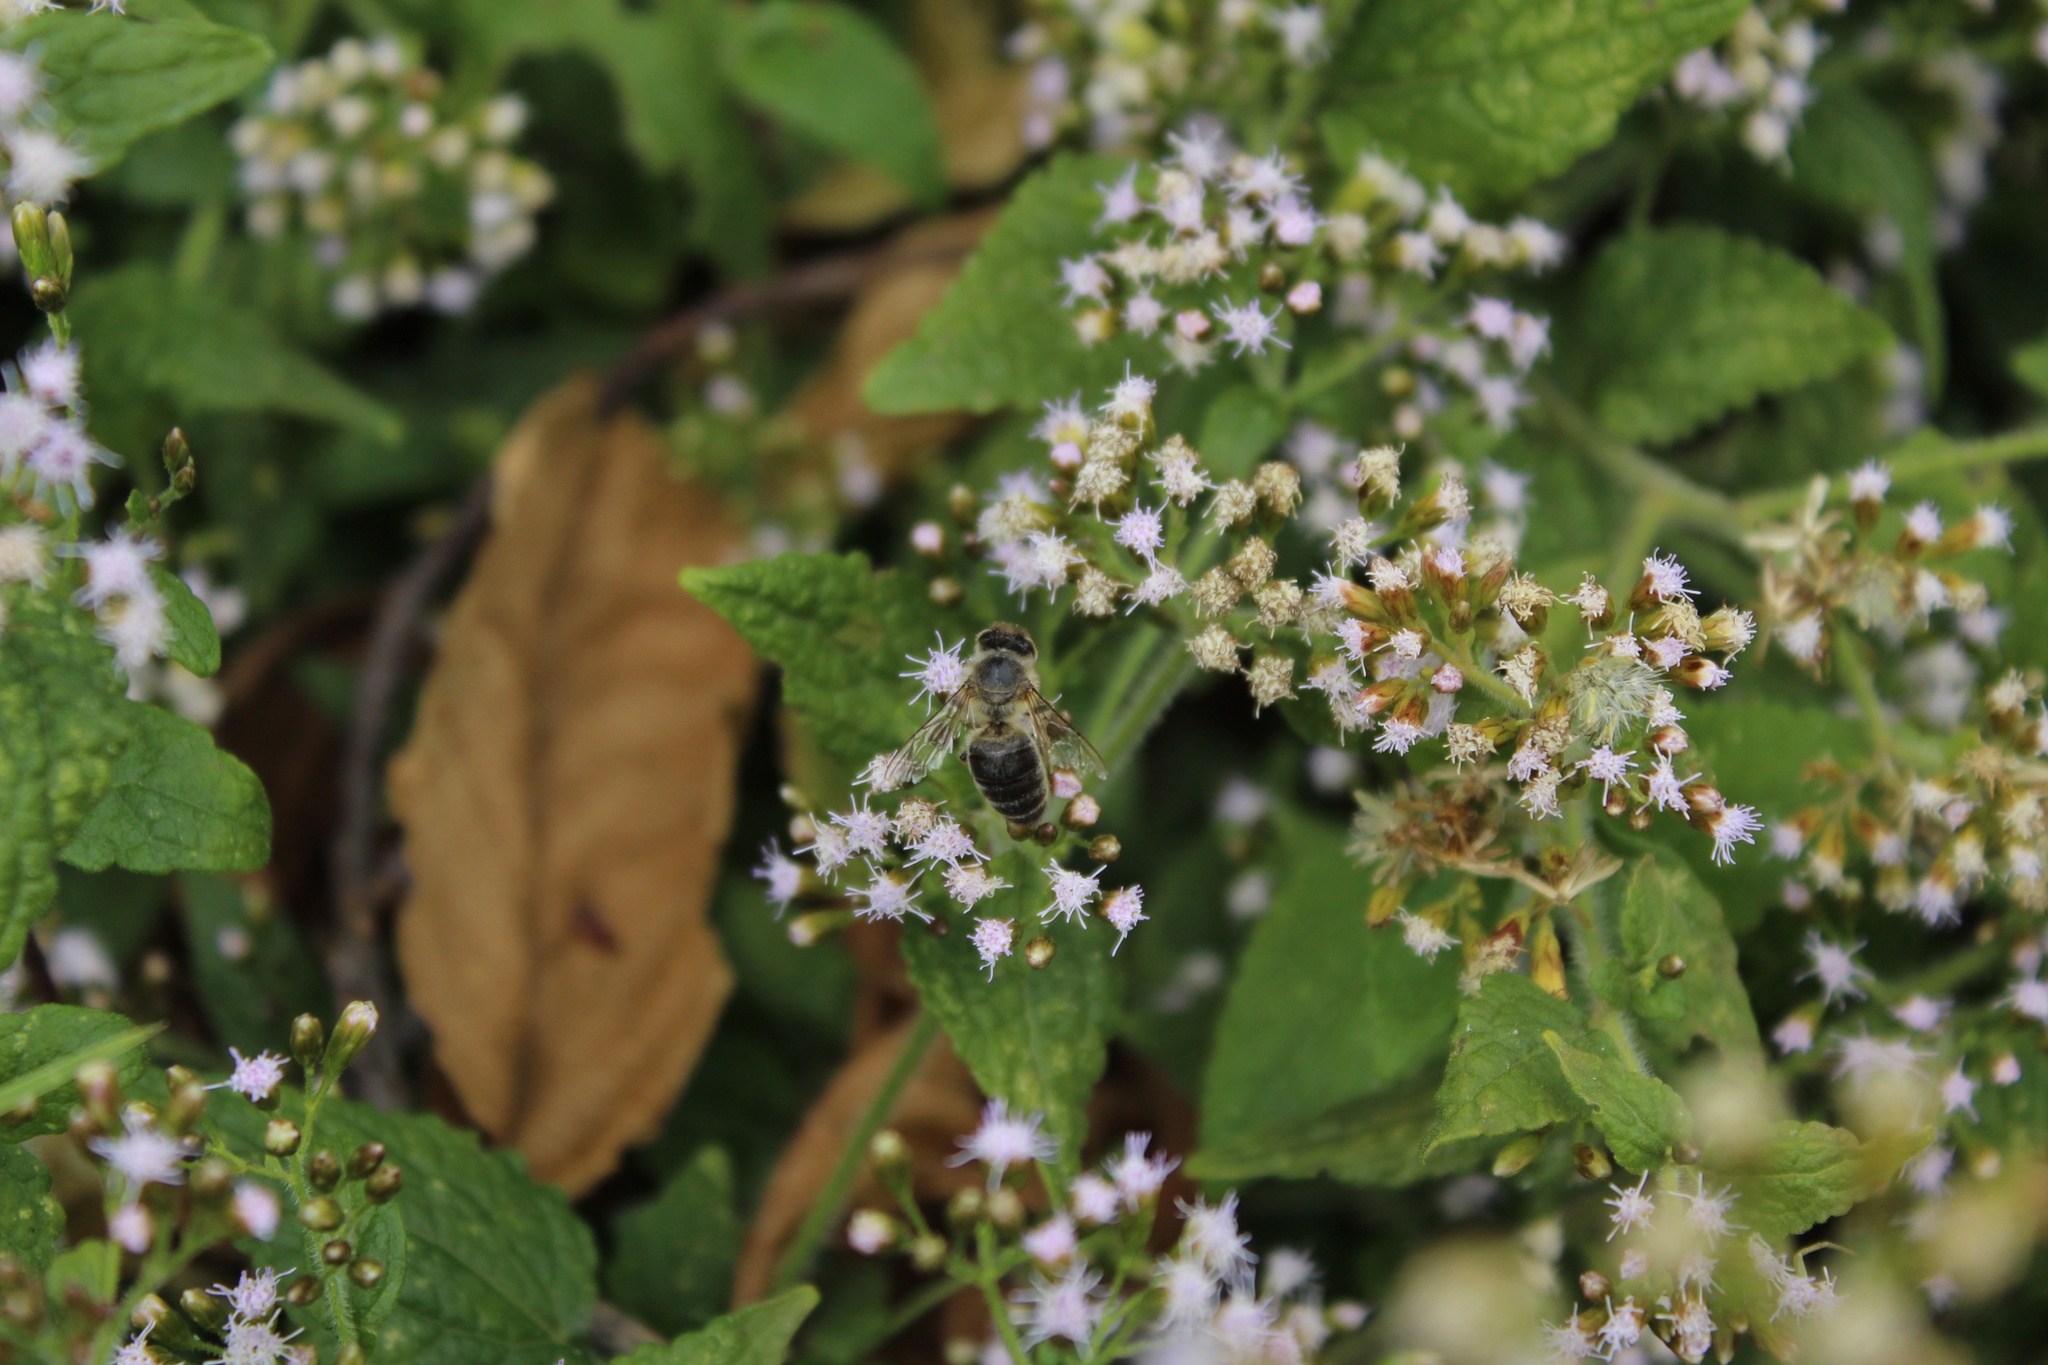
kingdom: Animalia
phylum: Arthropoda
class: Insecta
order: Hymenoptera
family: Apidae
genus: Apis
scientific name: Apis mellifera
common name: Honey bee
